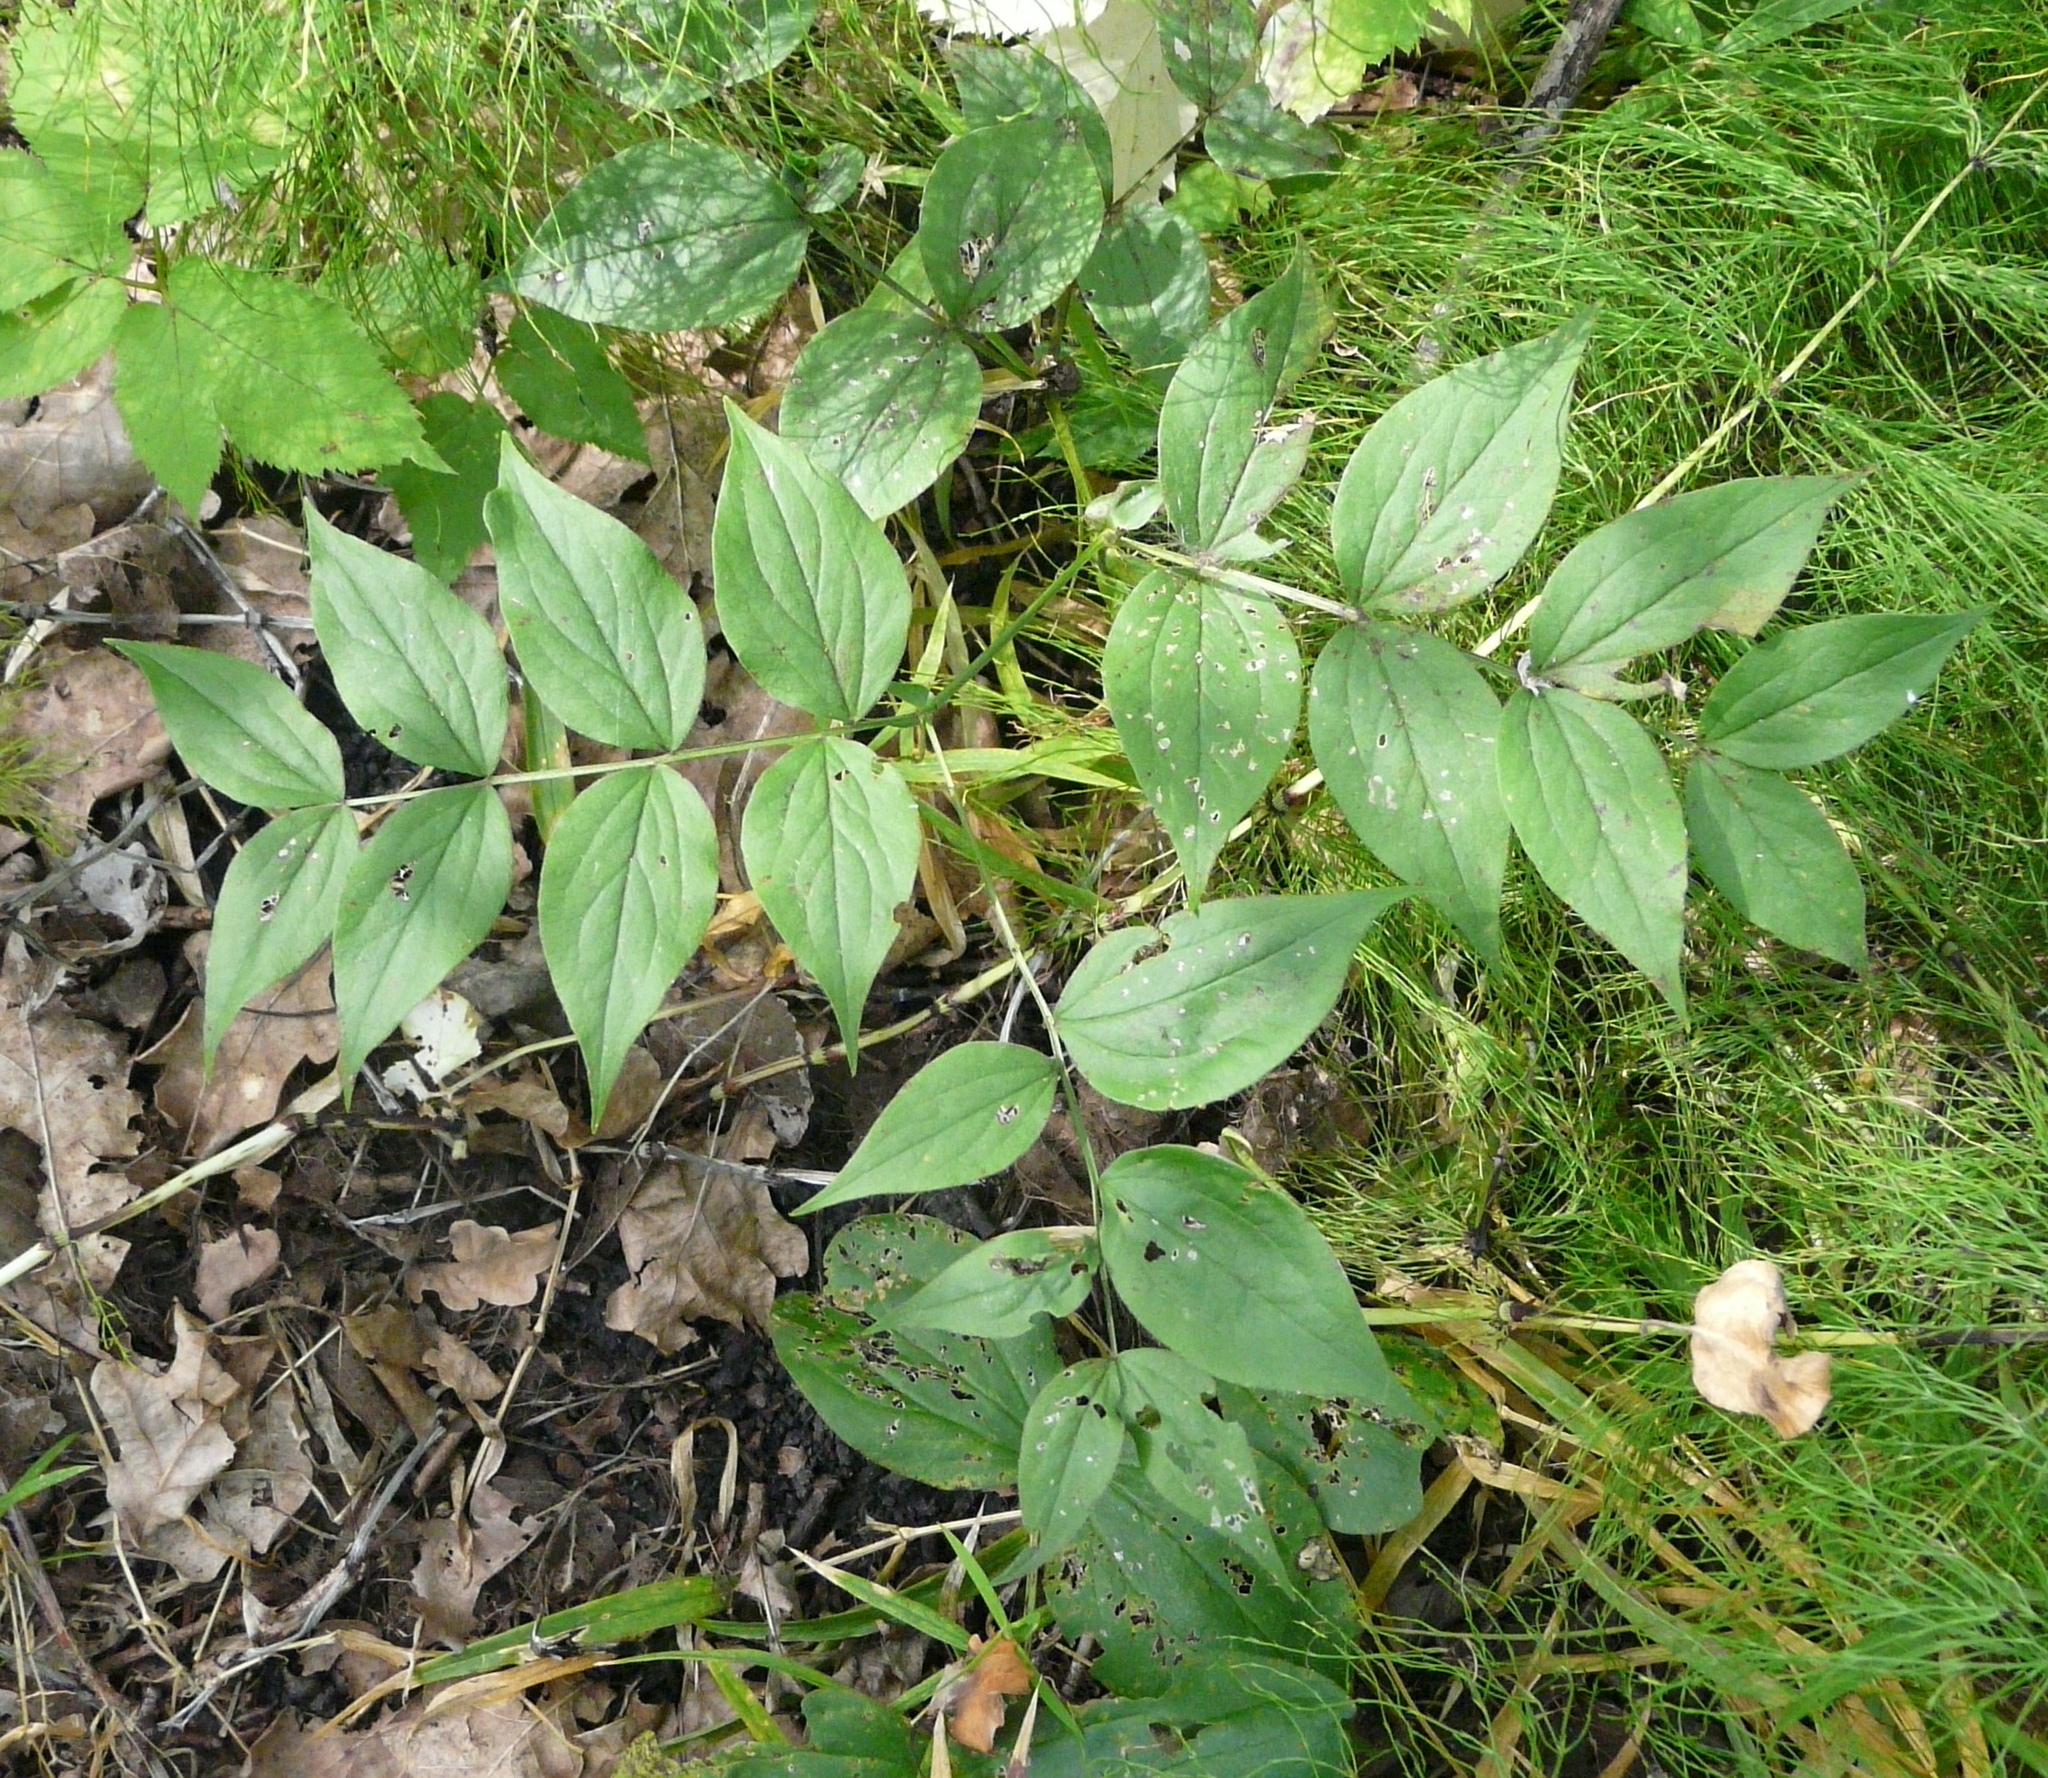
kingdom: Plantae
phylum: Tracheophyta
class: Magnoliopsida
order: Fabales
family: Fabaceae
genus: Lathyrus
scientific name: Lathyrus vernus
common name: Spring pea
